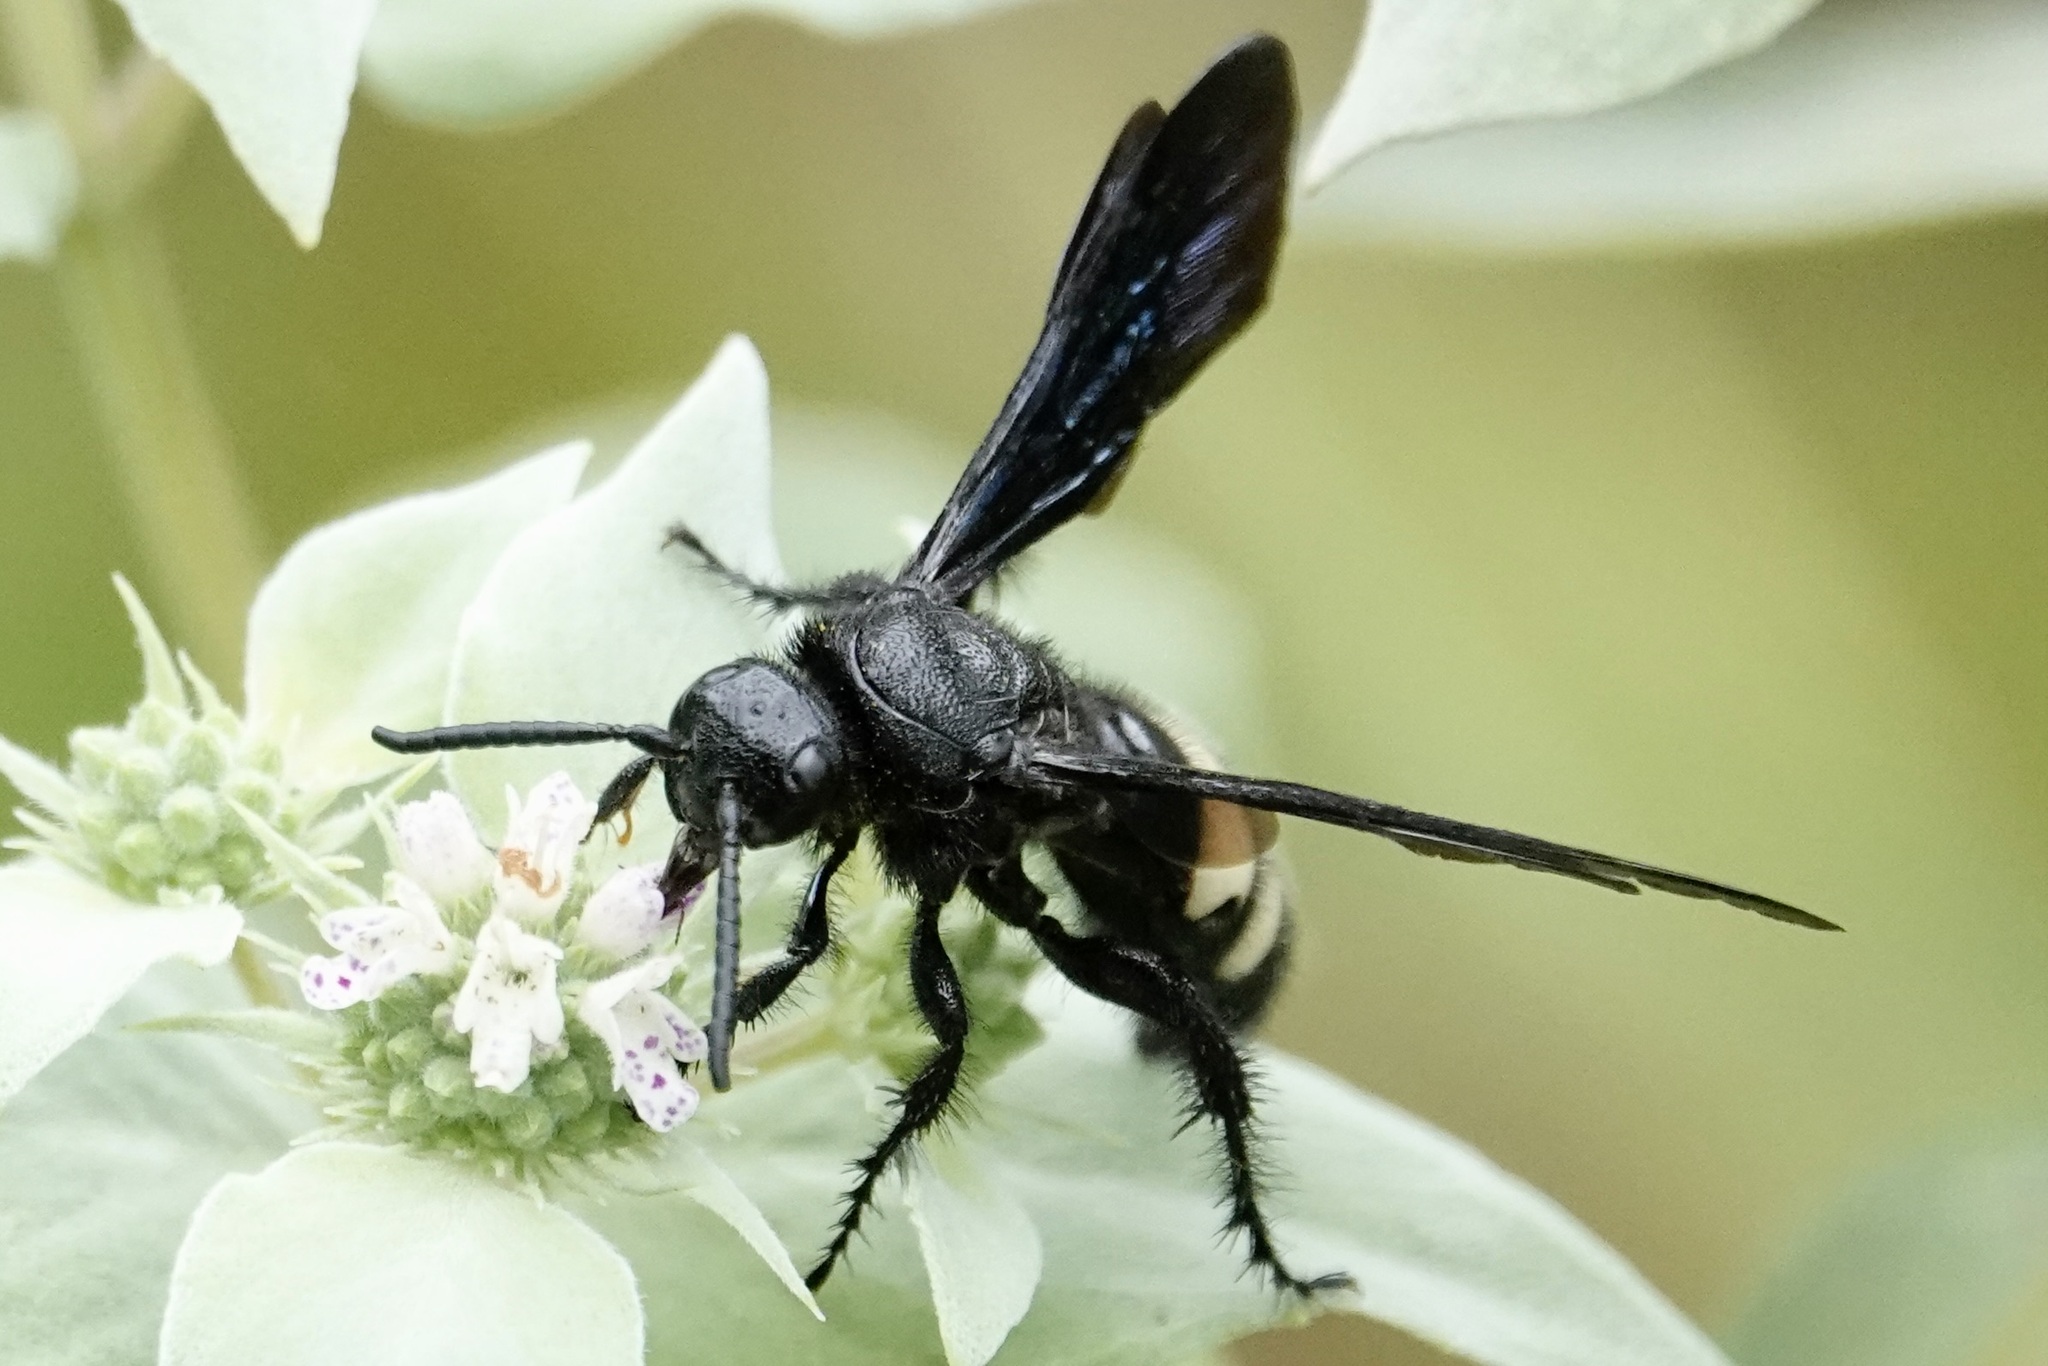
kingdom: Animalia
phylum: Arthropoda
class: Insecta
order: Hymenoptera
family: Scoliidae
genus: Scolia
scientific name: Scolia bicincta
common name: Double-banded scoliid wasp
